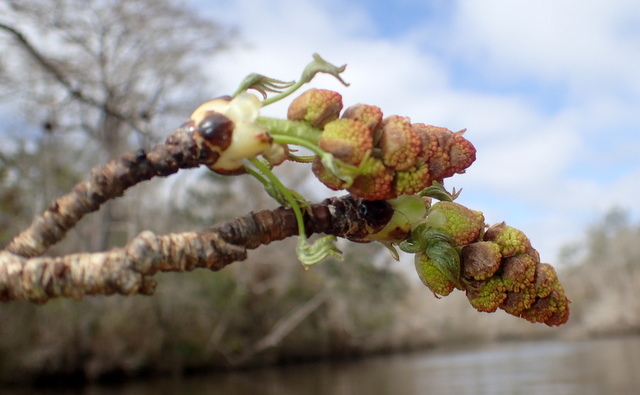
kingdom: Plantae
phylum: Tracheophyta
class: Magnoliopsida
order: Saxifragales
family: Altingiaceae
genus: Liquidambar
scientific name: Liquidambar styraciflua
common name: Sweet gum
